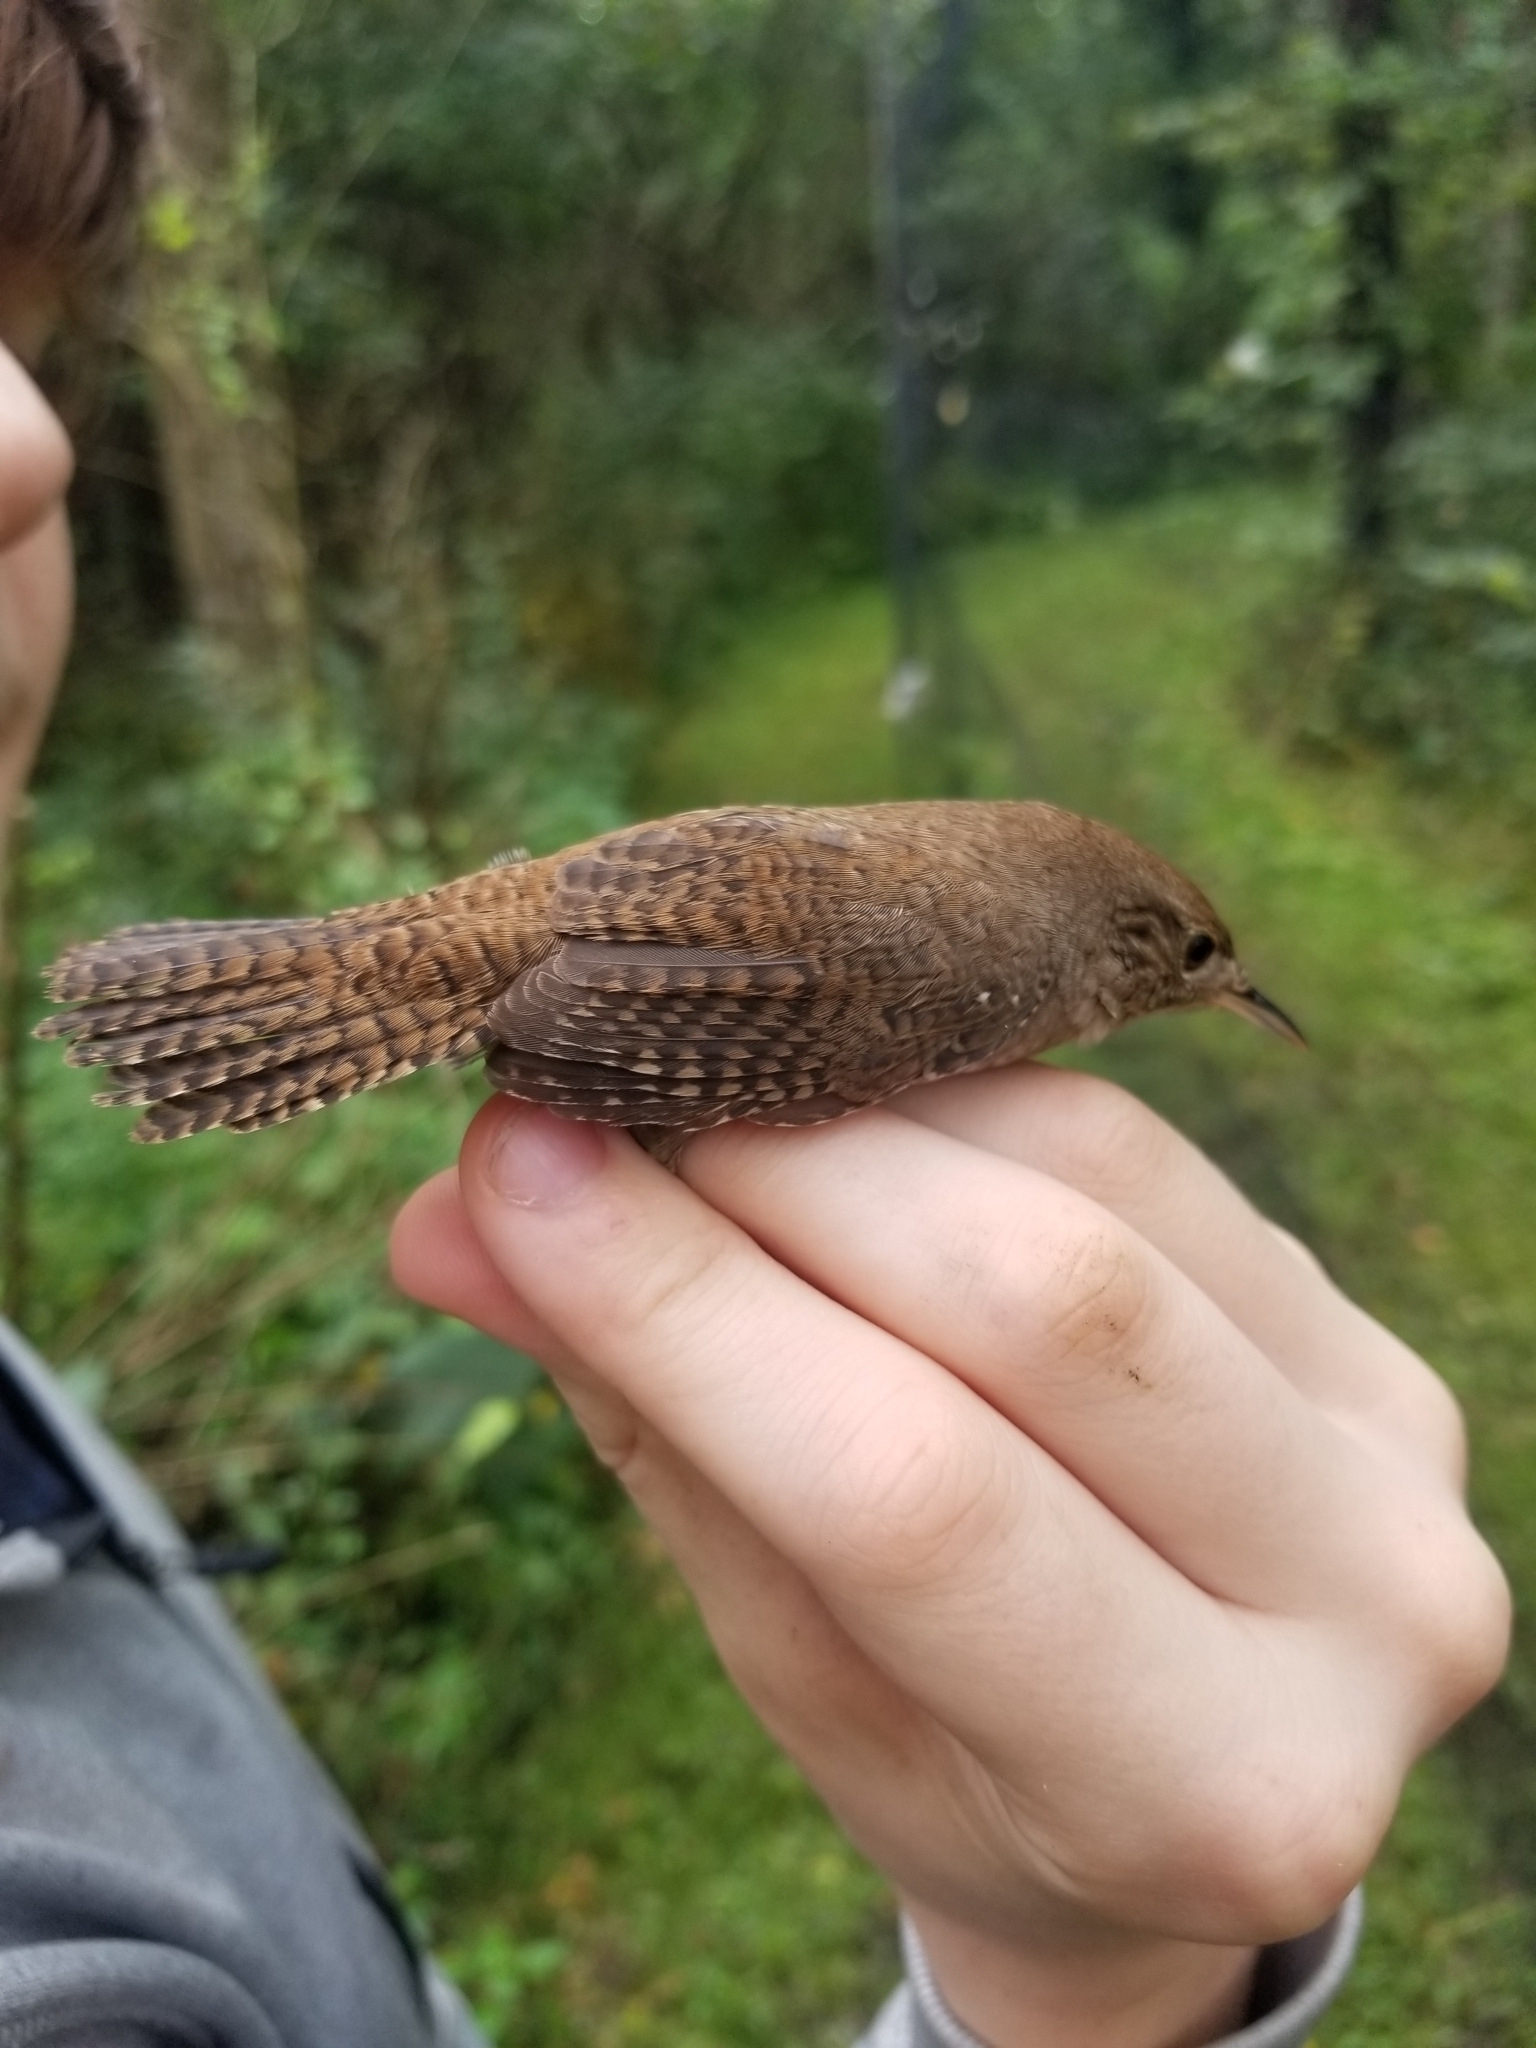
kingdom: Animalia
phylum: Chordata
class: Aves
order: Passeriformes
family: Troglodytidae
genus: Troglodytes
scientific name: Troglodytes aedon
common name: House wren
